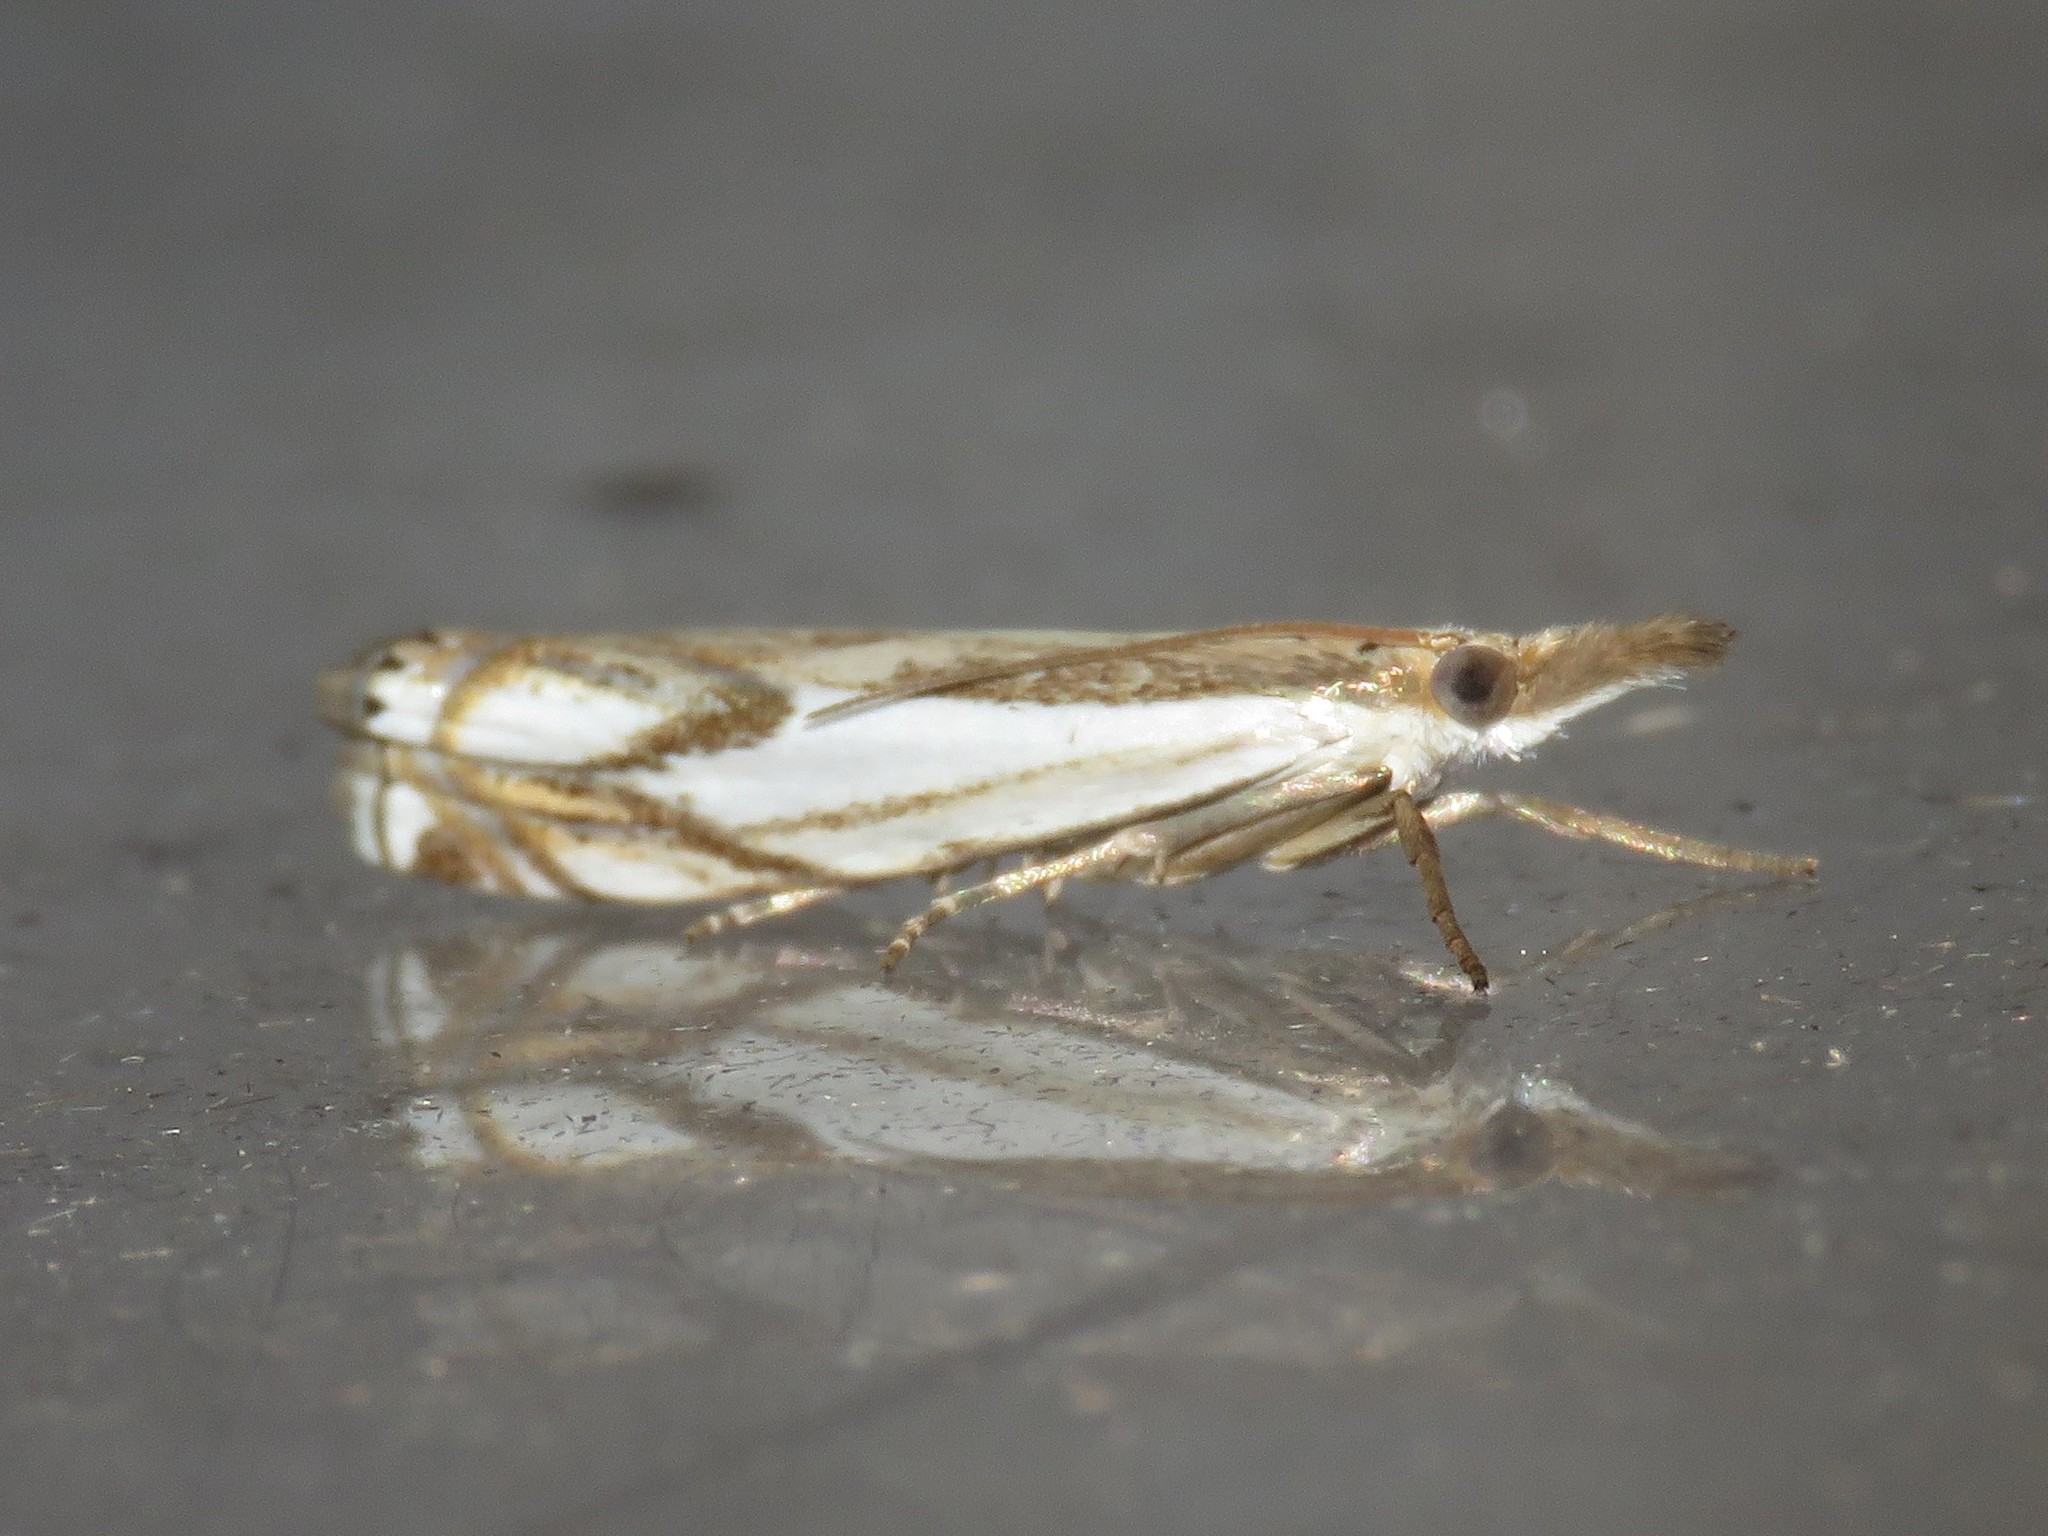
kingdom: Animalia
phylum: Arthropoda
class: Insecta
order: Lepidoptera
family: Crambidae
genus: Crambus
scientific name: Crambus agitatellus
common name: Double-banded grass-veneer
